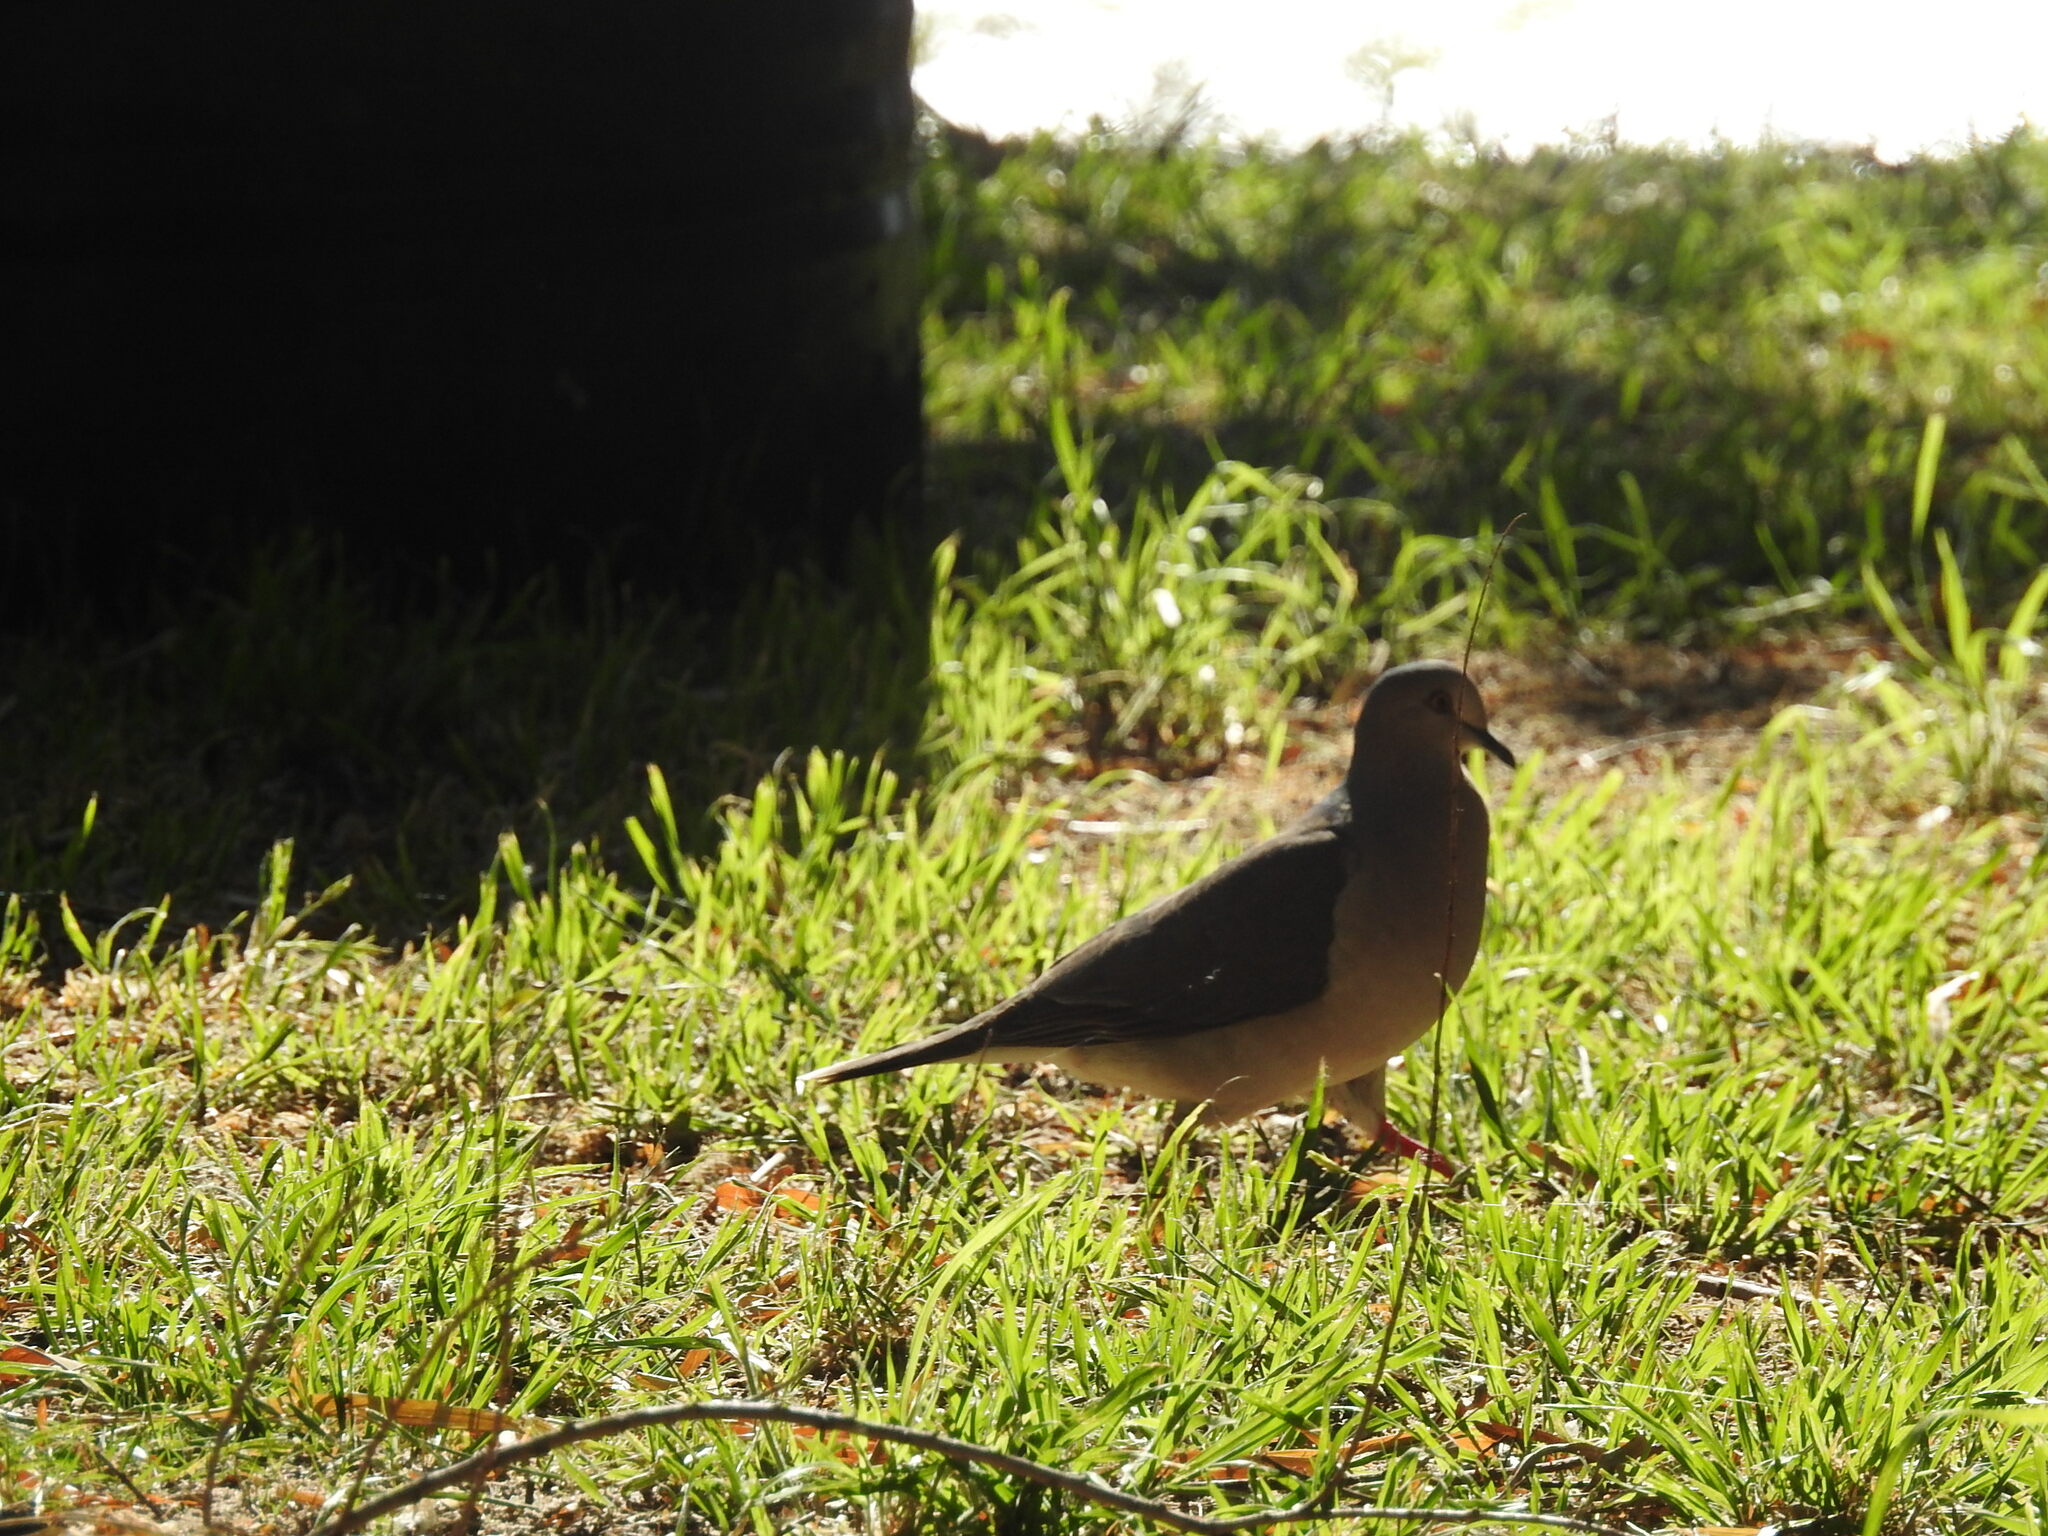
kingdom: Animalia
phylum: Chordata
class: Aves
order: Columbiformes
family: Columbidae
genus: Leptotila
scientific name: Leptotila verreauxi
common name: White-tipped dove
